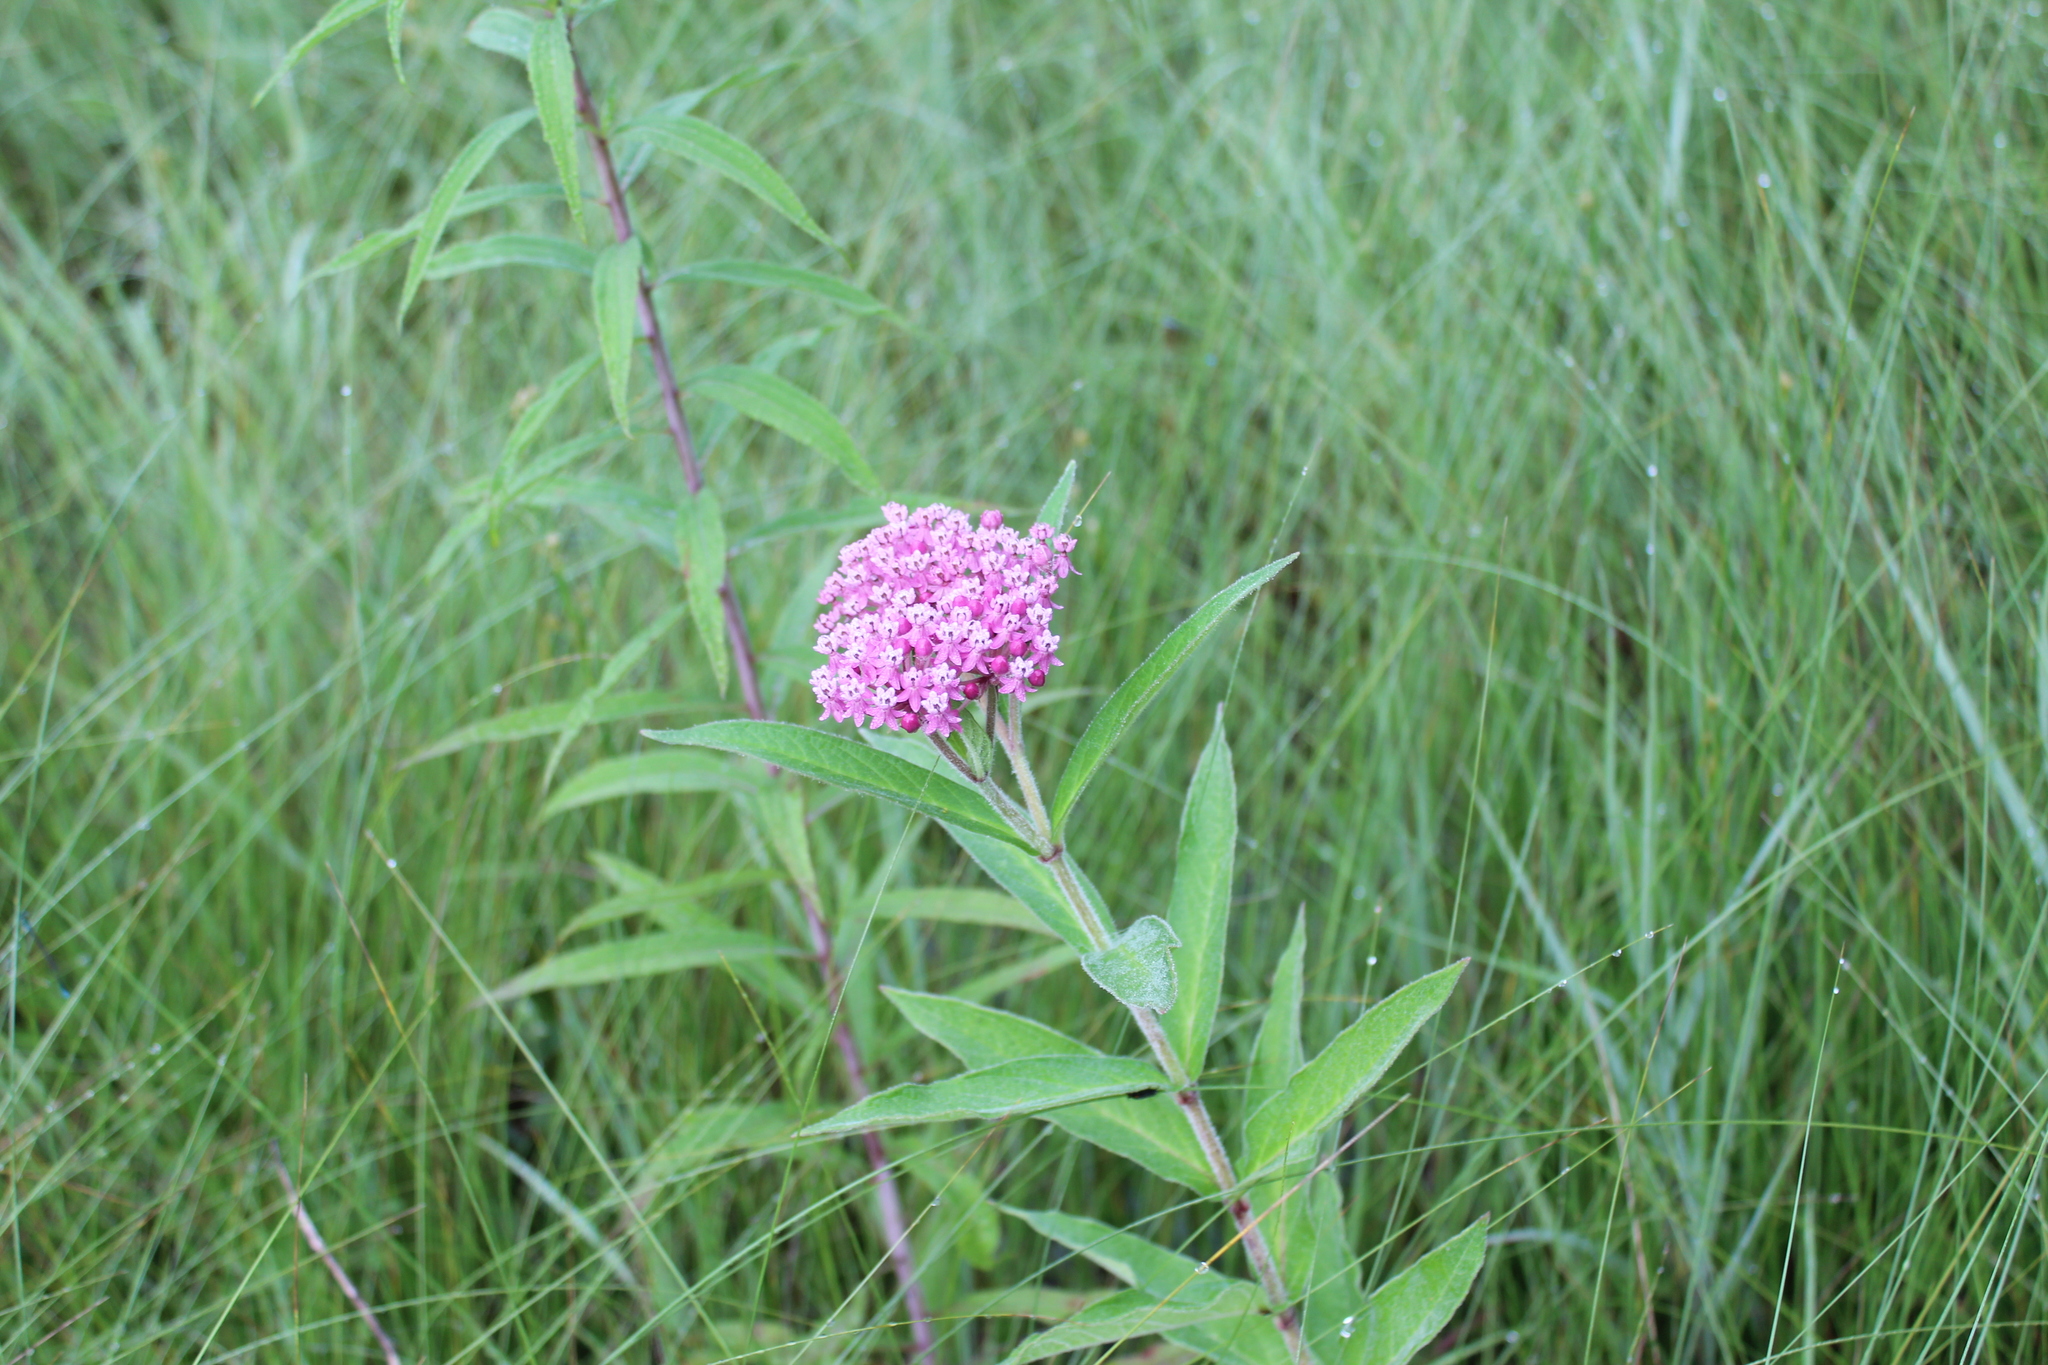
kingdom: Plantae
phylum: Tracheophyta
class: Magnoliopsida
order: Gentianales
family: Apocynaceae
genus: Asclepias
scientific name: Asclepias incarnata
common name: Swamp milkweed
